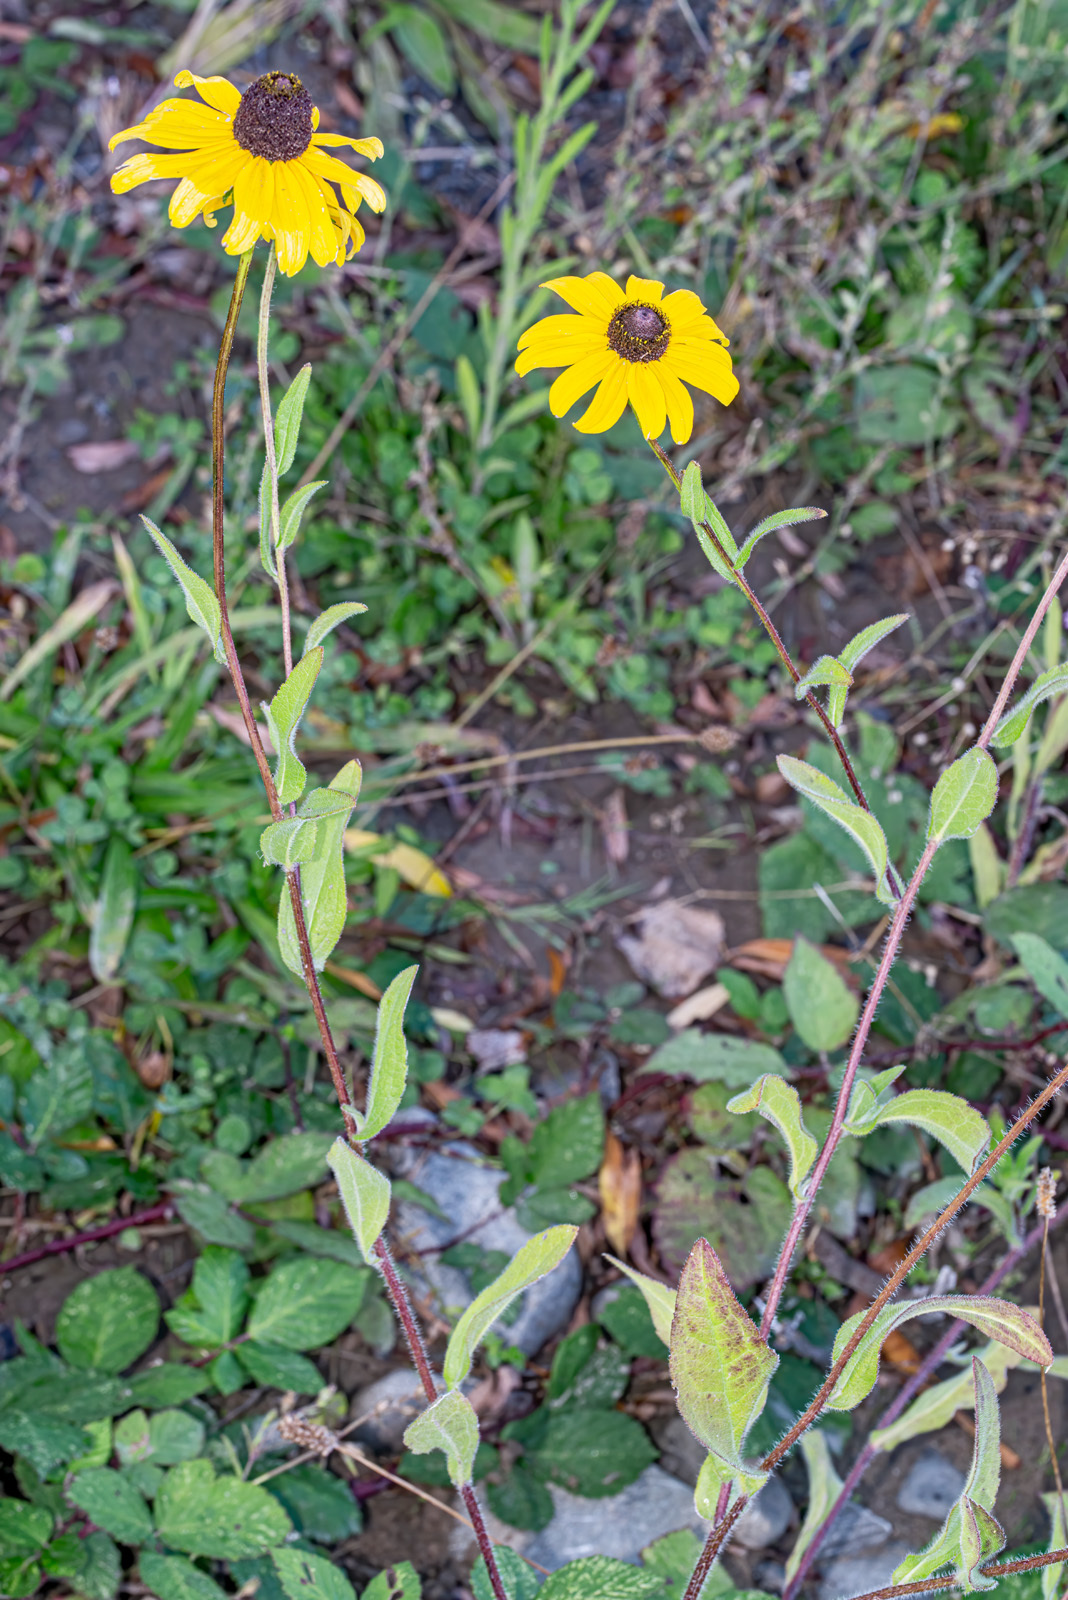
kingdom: Plantae
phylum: Tracheophyta
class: Magnoliopsida
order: Asterales
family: Asteraceae
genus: Rudbeckia
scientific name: Rudbeckia hirta
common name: Black-eyed-susan
